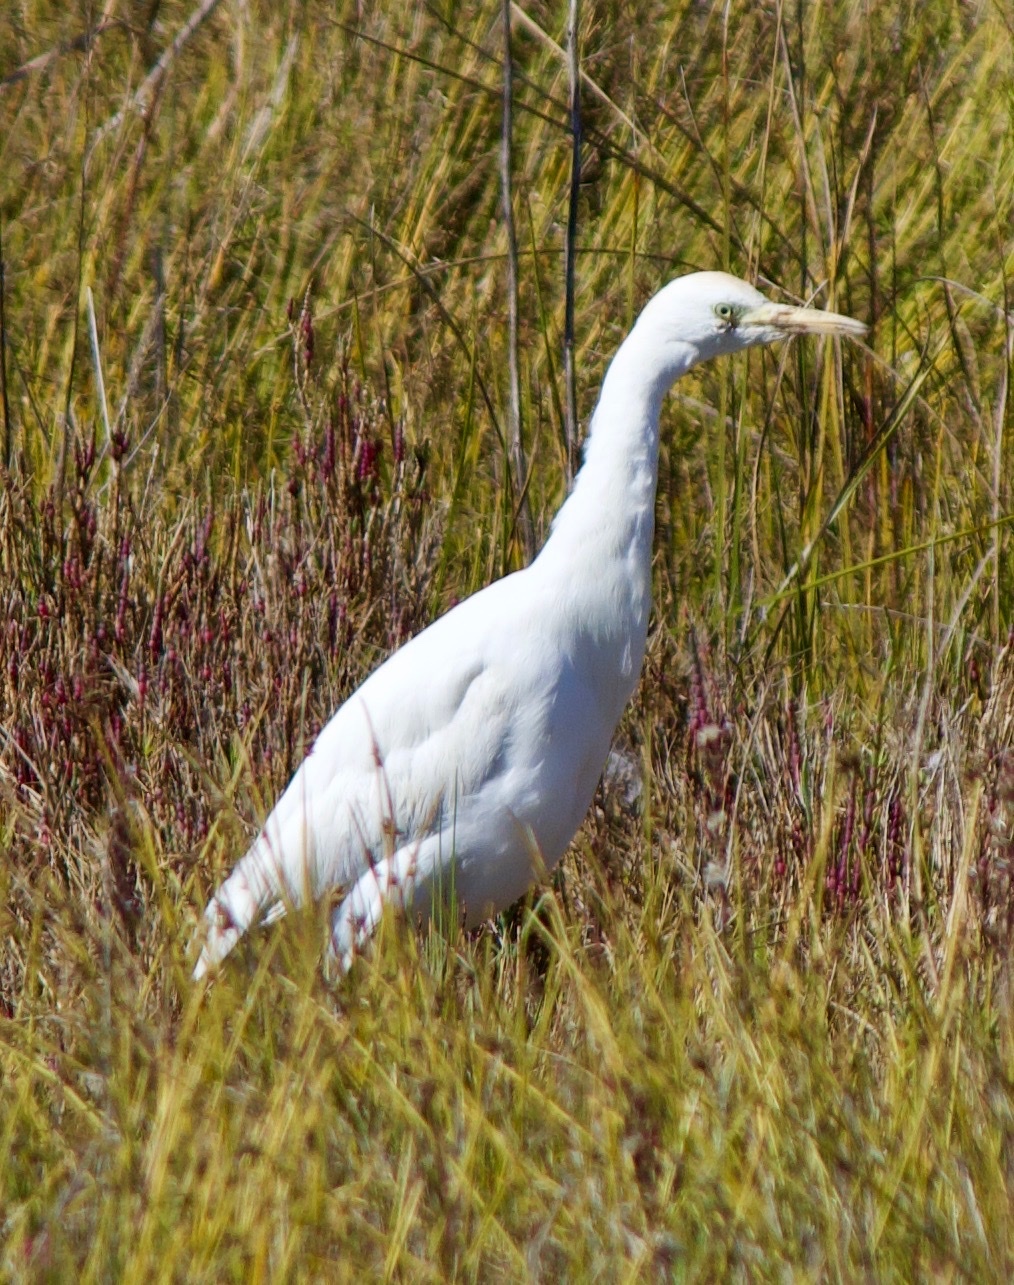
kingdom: Animalia
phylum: Chordata
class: Aves
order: Pelecaniformes
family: Ardeidae
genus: Bubulcus
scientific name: Bubulcus ibis
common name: Cattle egret
